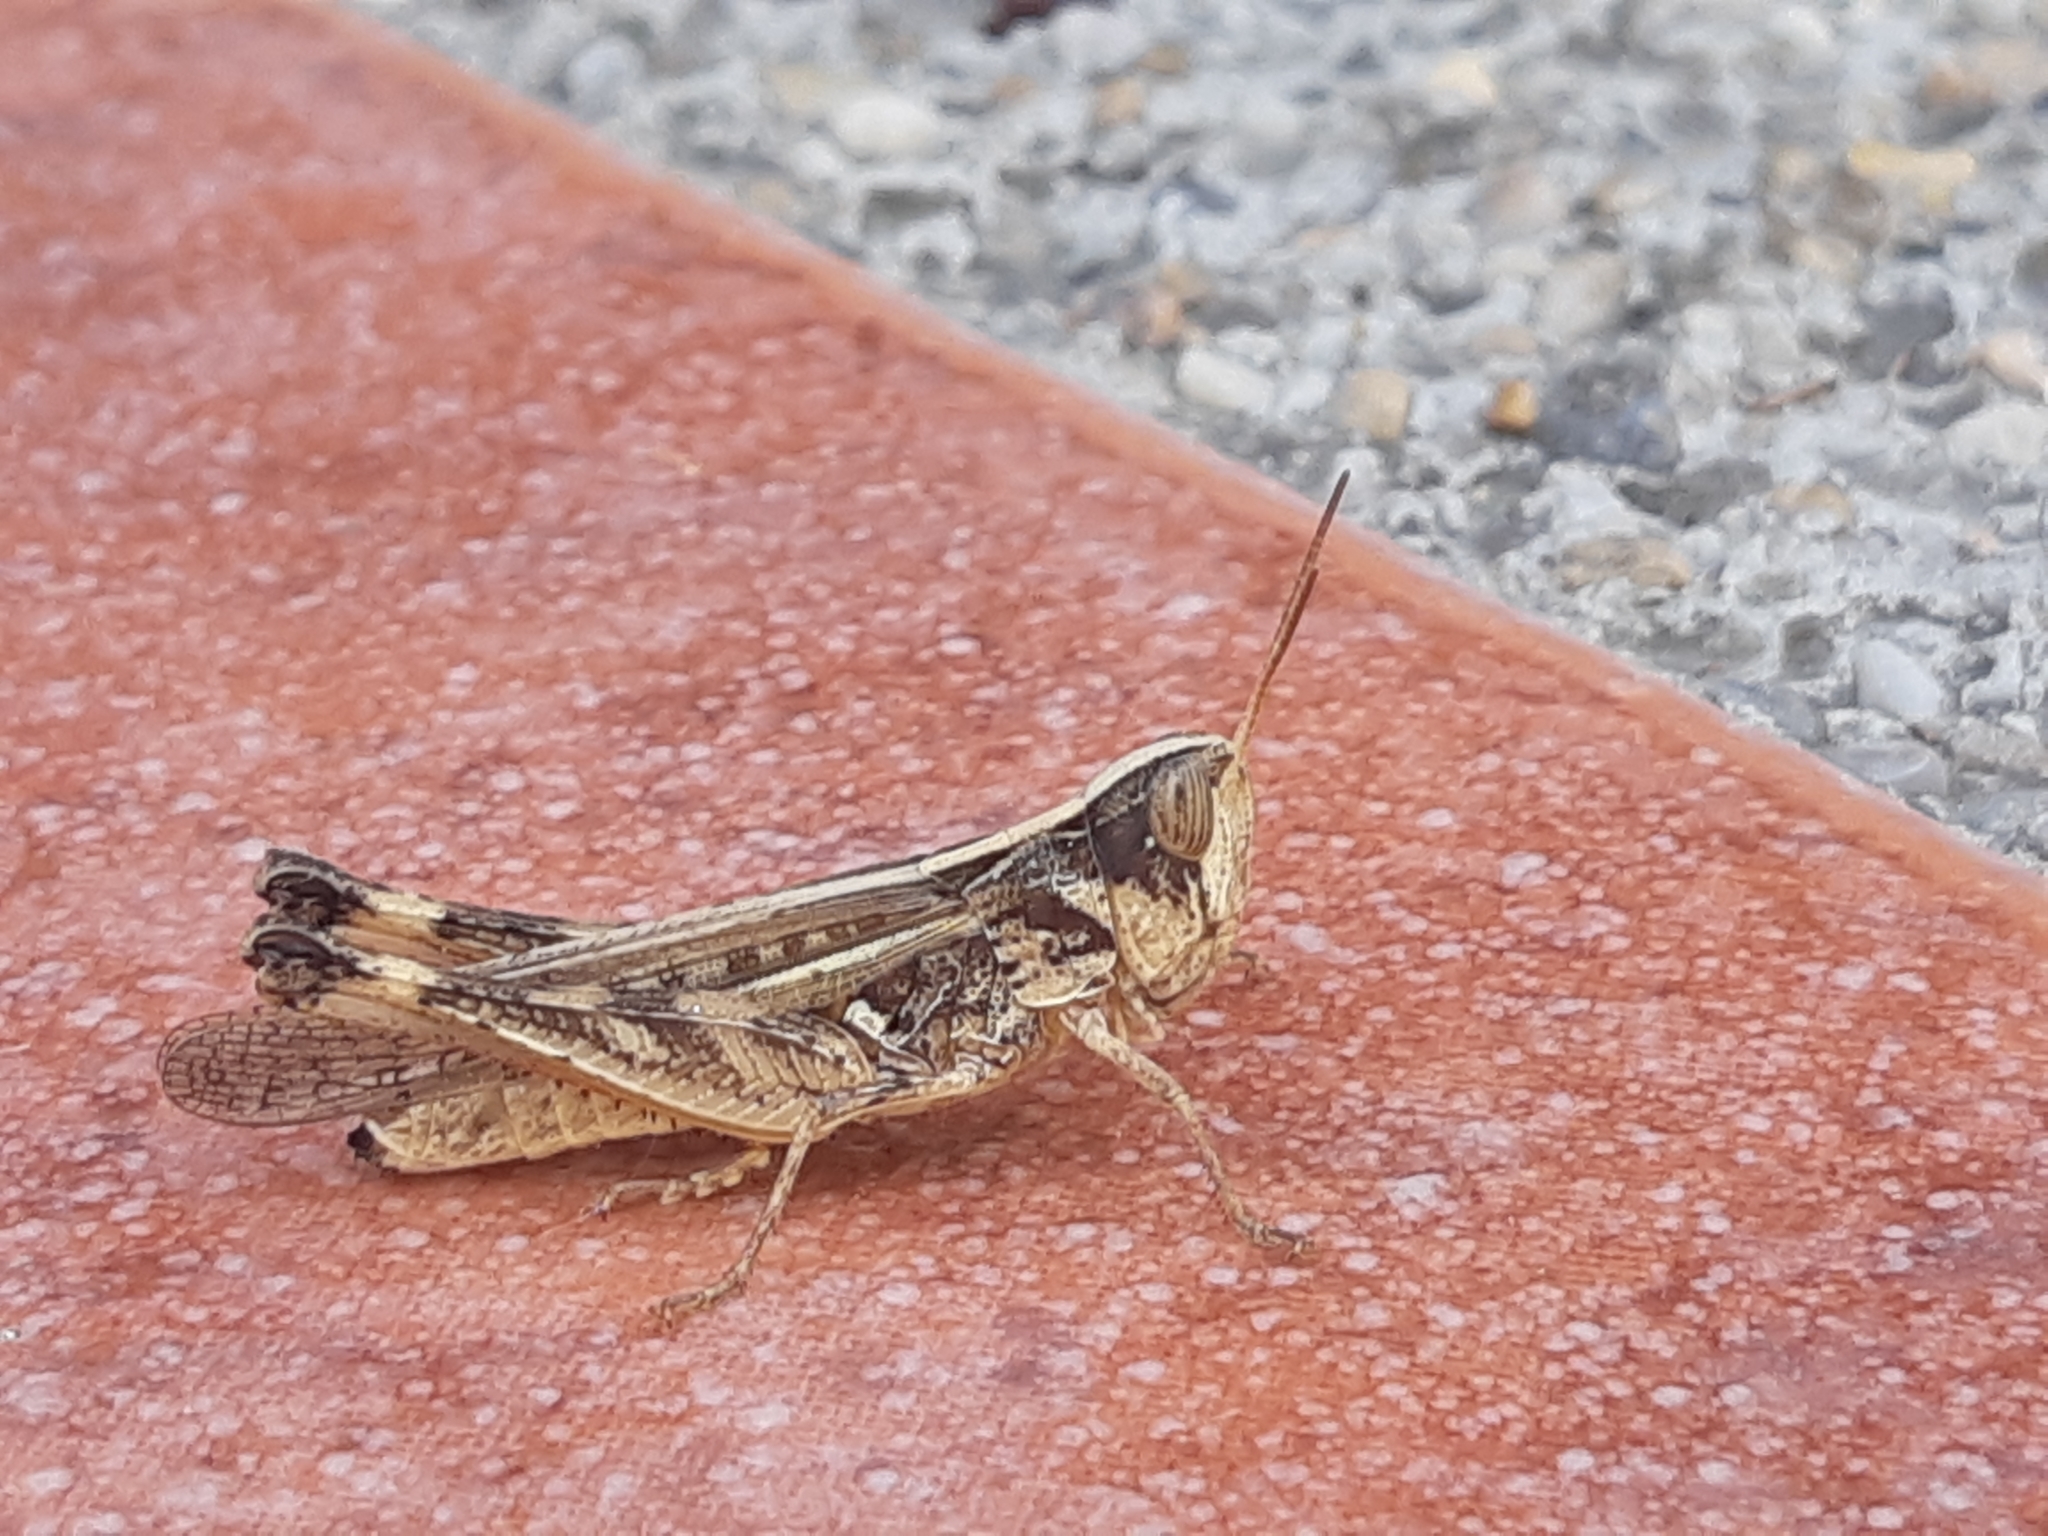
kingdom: Animalia
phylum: Arthropoda
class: Insecta
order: Orthoptera
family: Acrididae
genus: Rhammatocerus
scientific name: Rhammatocerus peragrans
